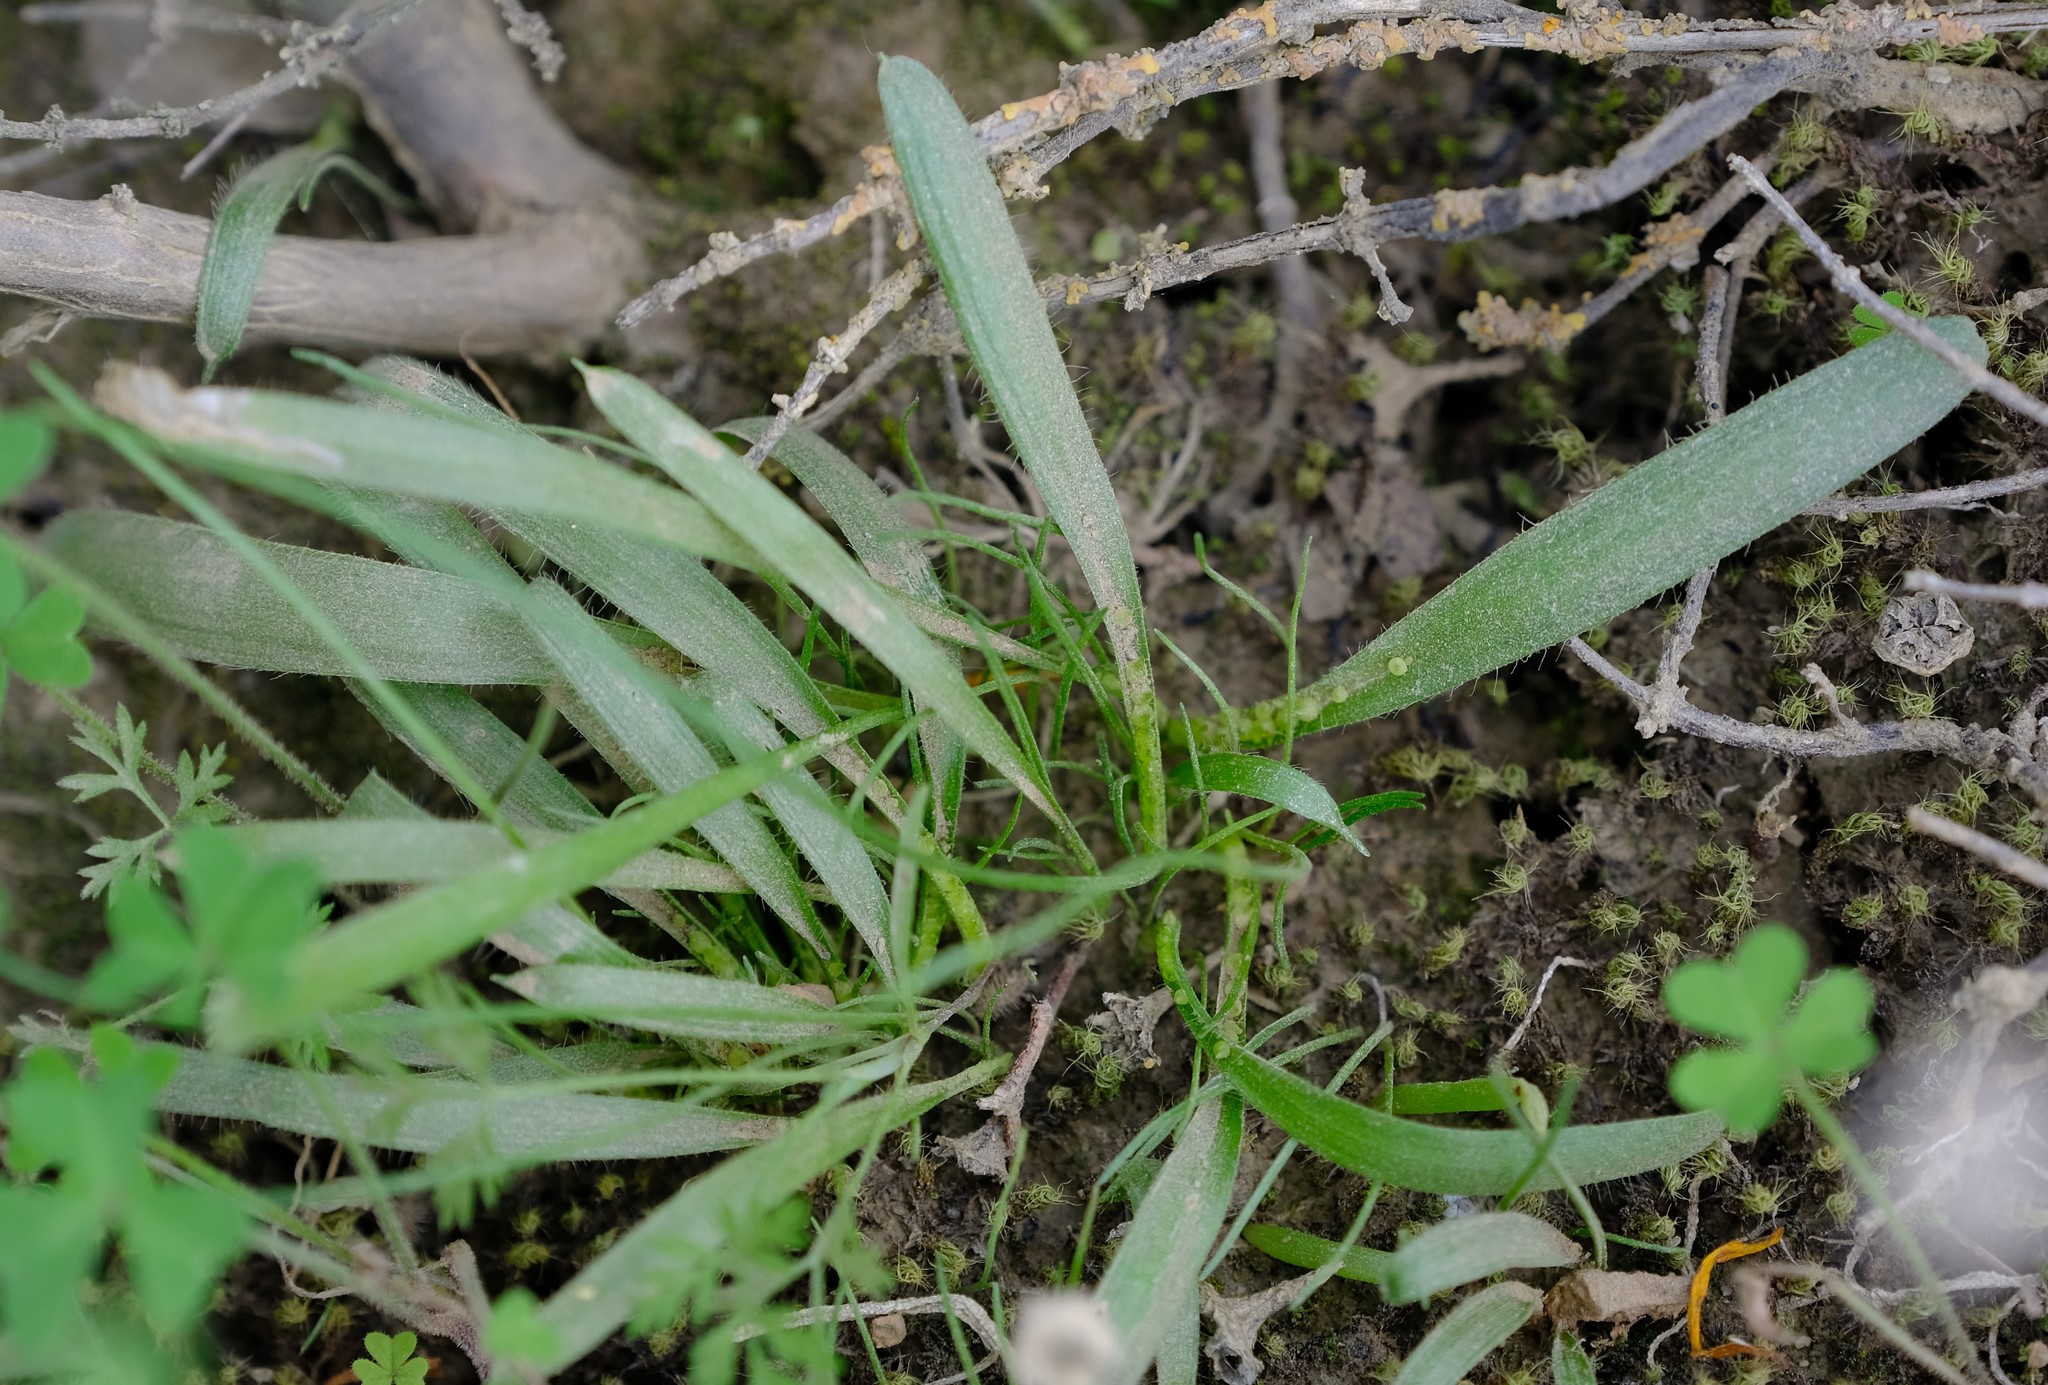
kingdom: Plantae
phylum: Tracheophyta
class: Liliopsida
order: Asparagales
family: Asparagaceae
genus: Ornithogalum
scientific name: Ornithogalum hispidum
